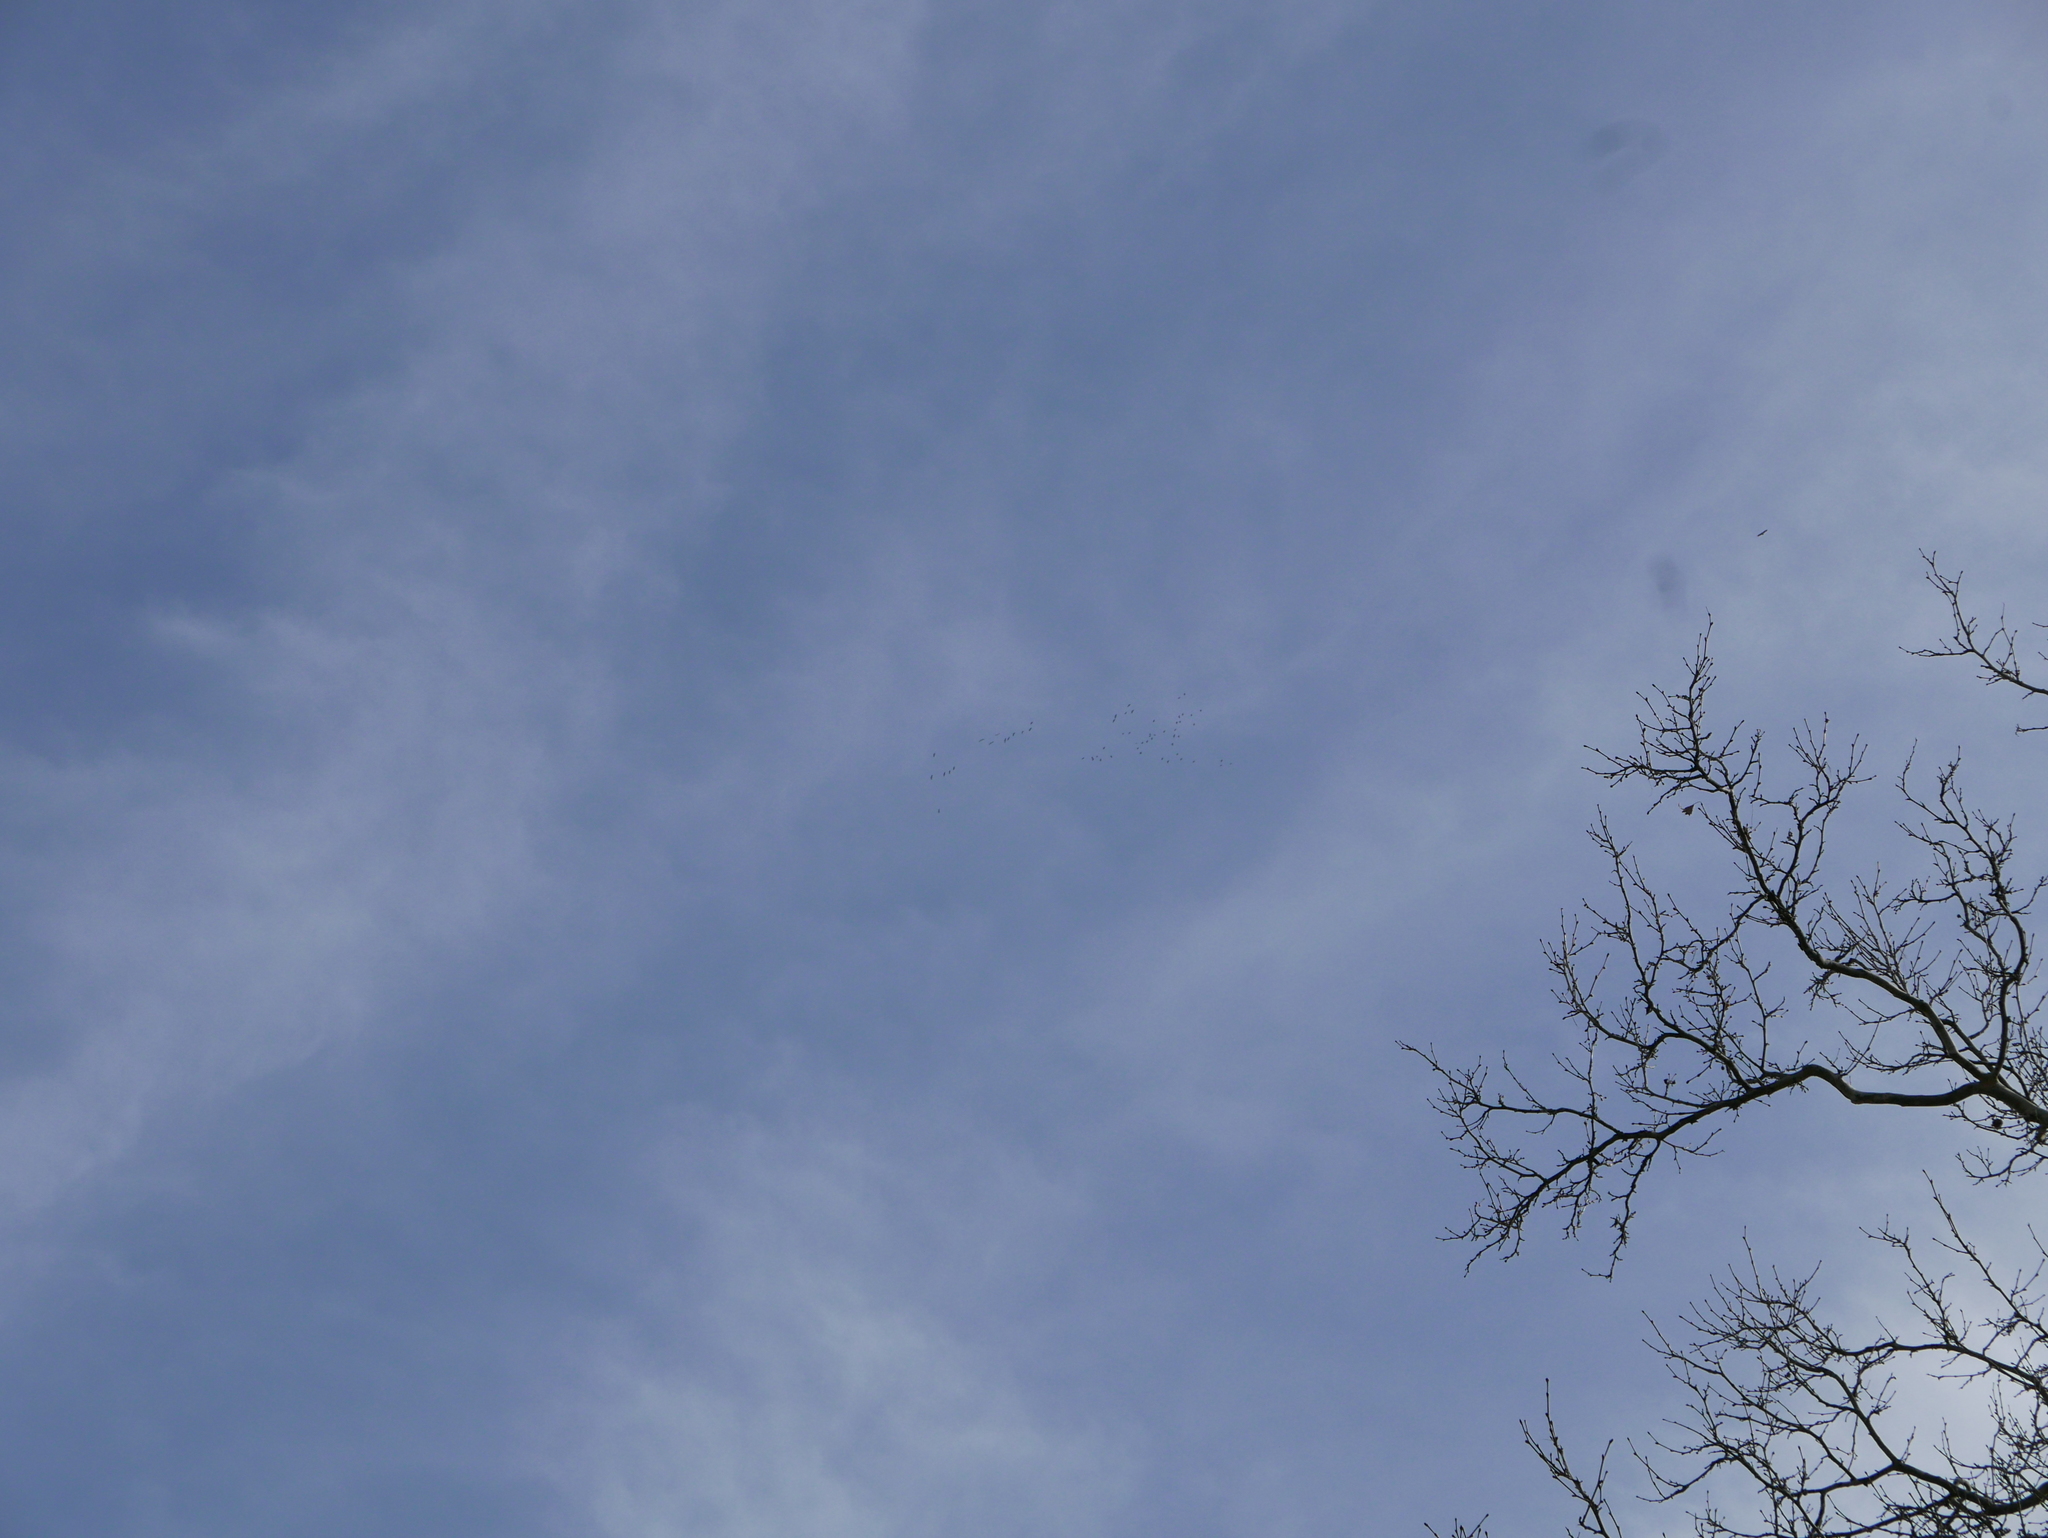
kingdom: Animalia
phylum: Chordata
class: Aves
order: Gruiformes
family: Gruidae
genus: Grus
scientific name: Grus grus
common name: Common crane
